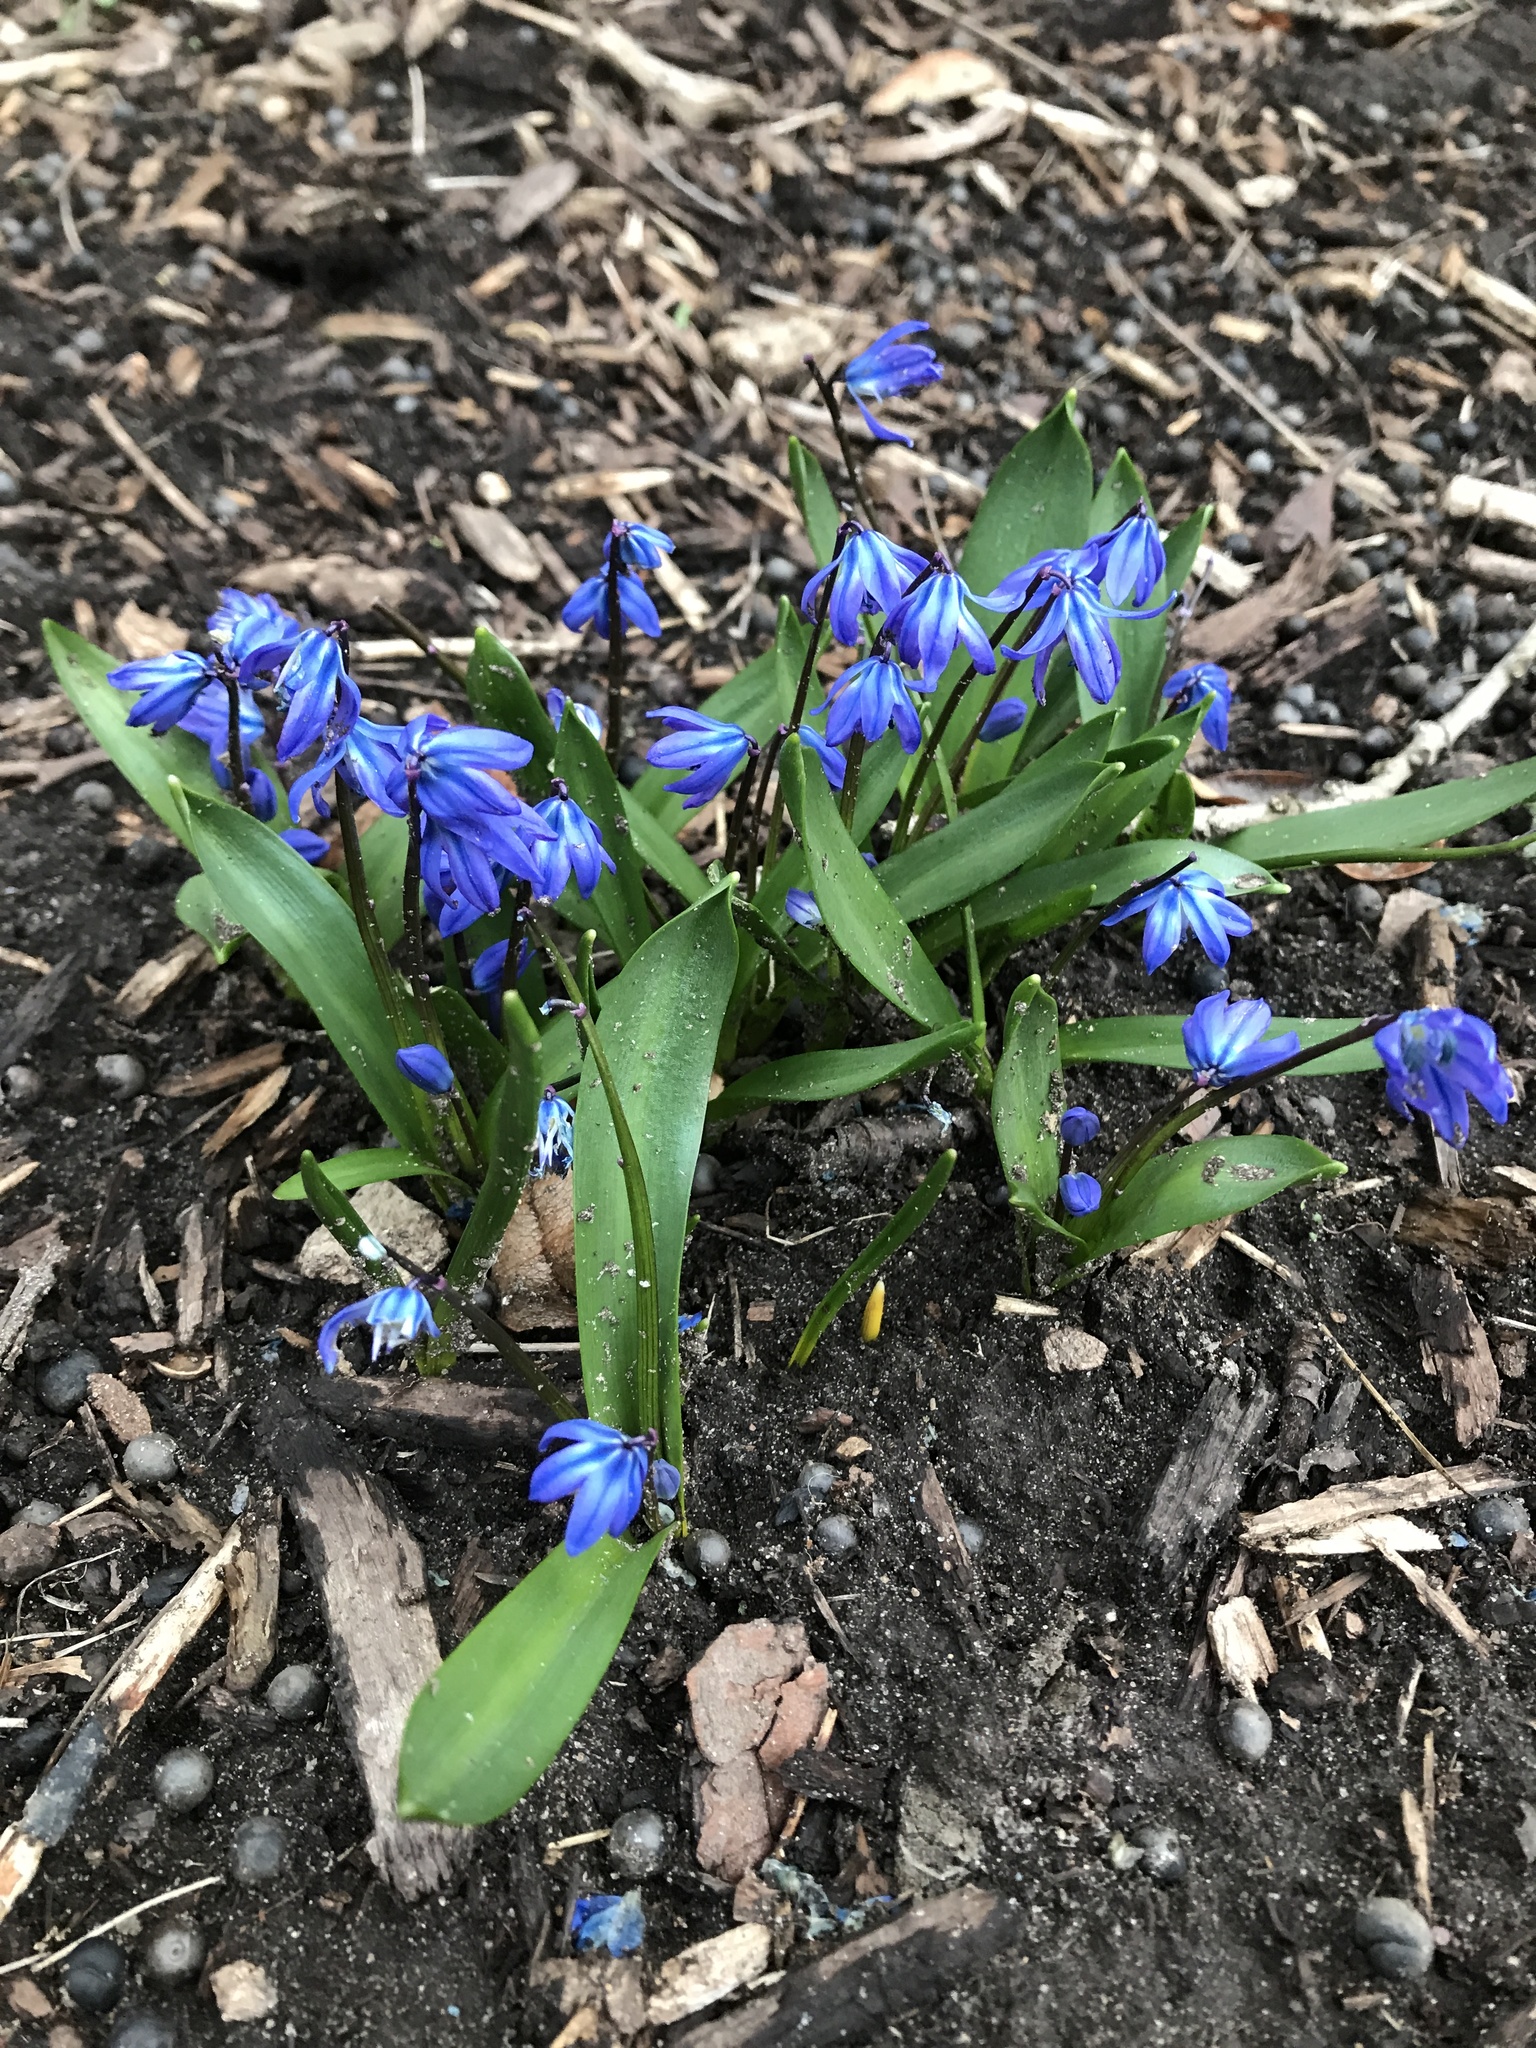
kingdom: Plantae
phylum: Tracheophyta
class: Liliopsida
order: Asparagales
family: Asparagaceae
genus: Scilla
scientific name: Scilla siberica
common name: Siberian squill
